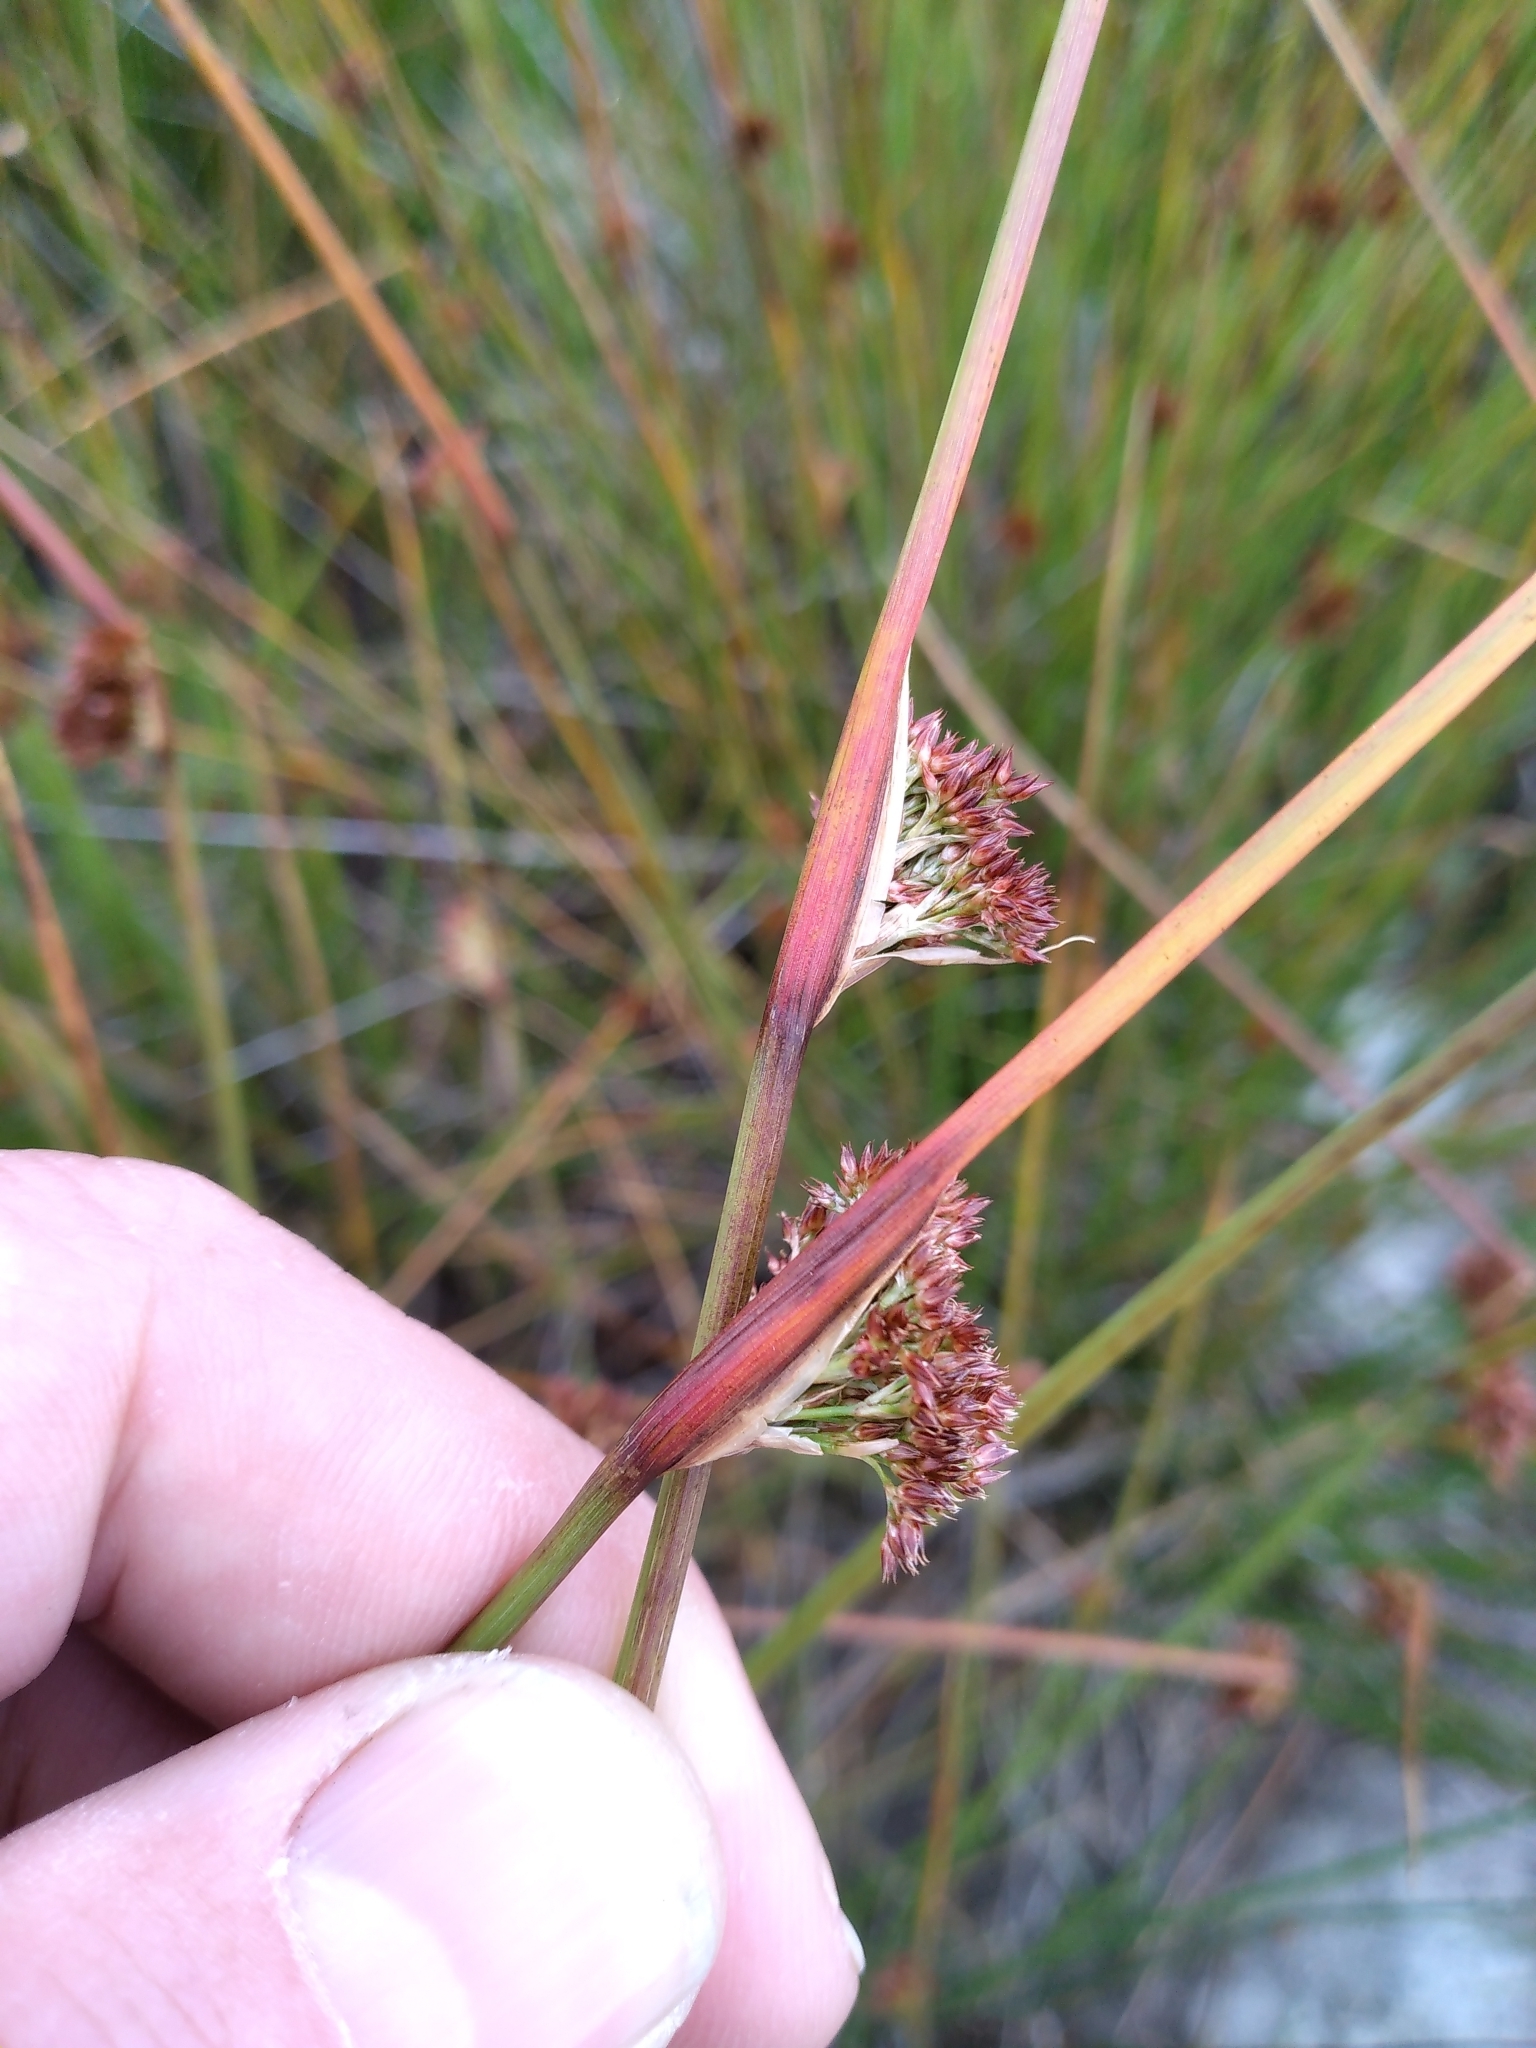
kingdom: Plantae
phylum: Tracheophyta
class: Liliopsida
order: Poales
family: Juncaceae
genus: Juncus
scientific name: Juncus conglomeratus
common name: Compact rush
